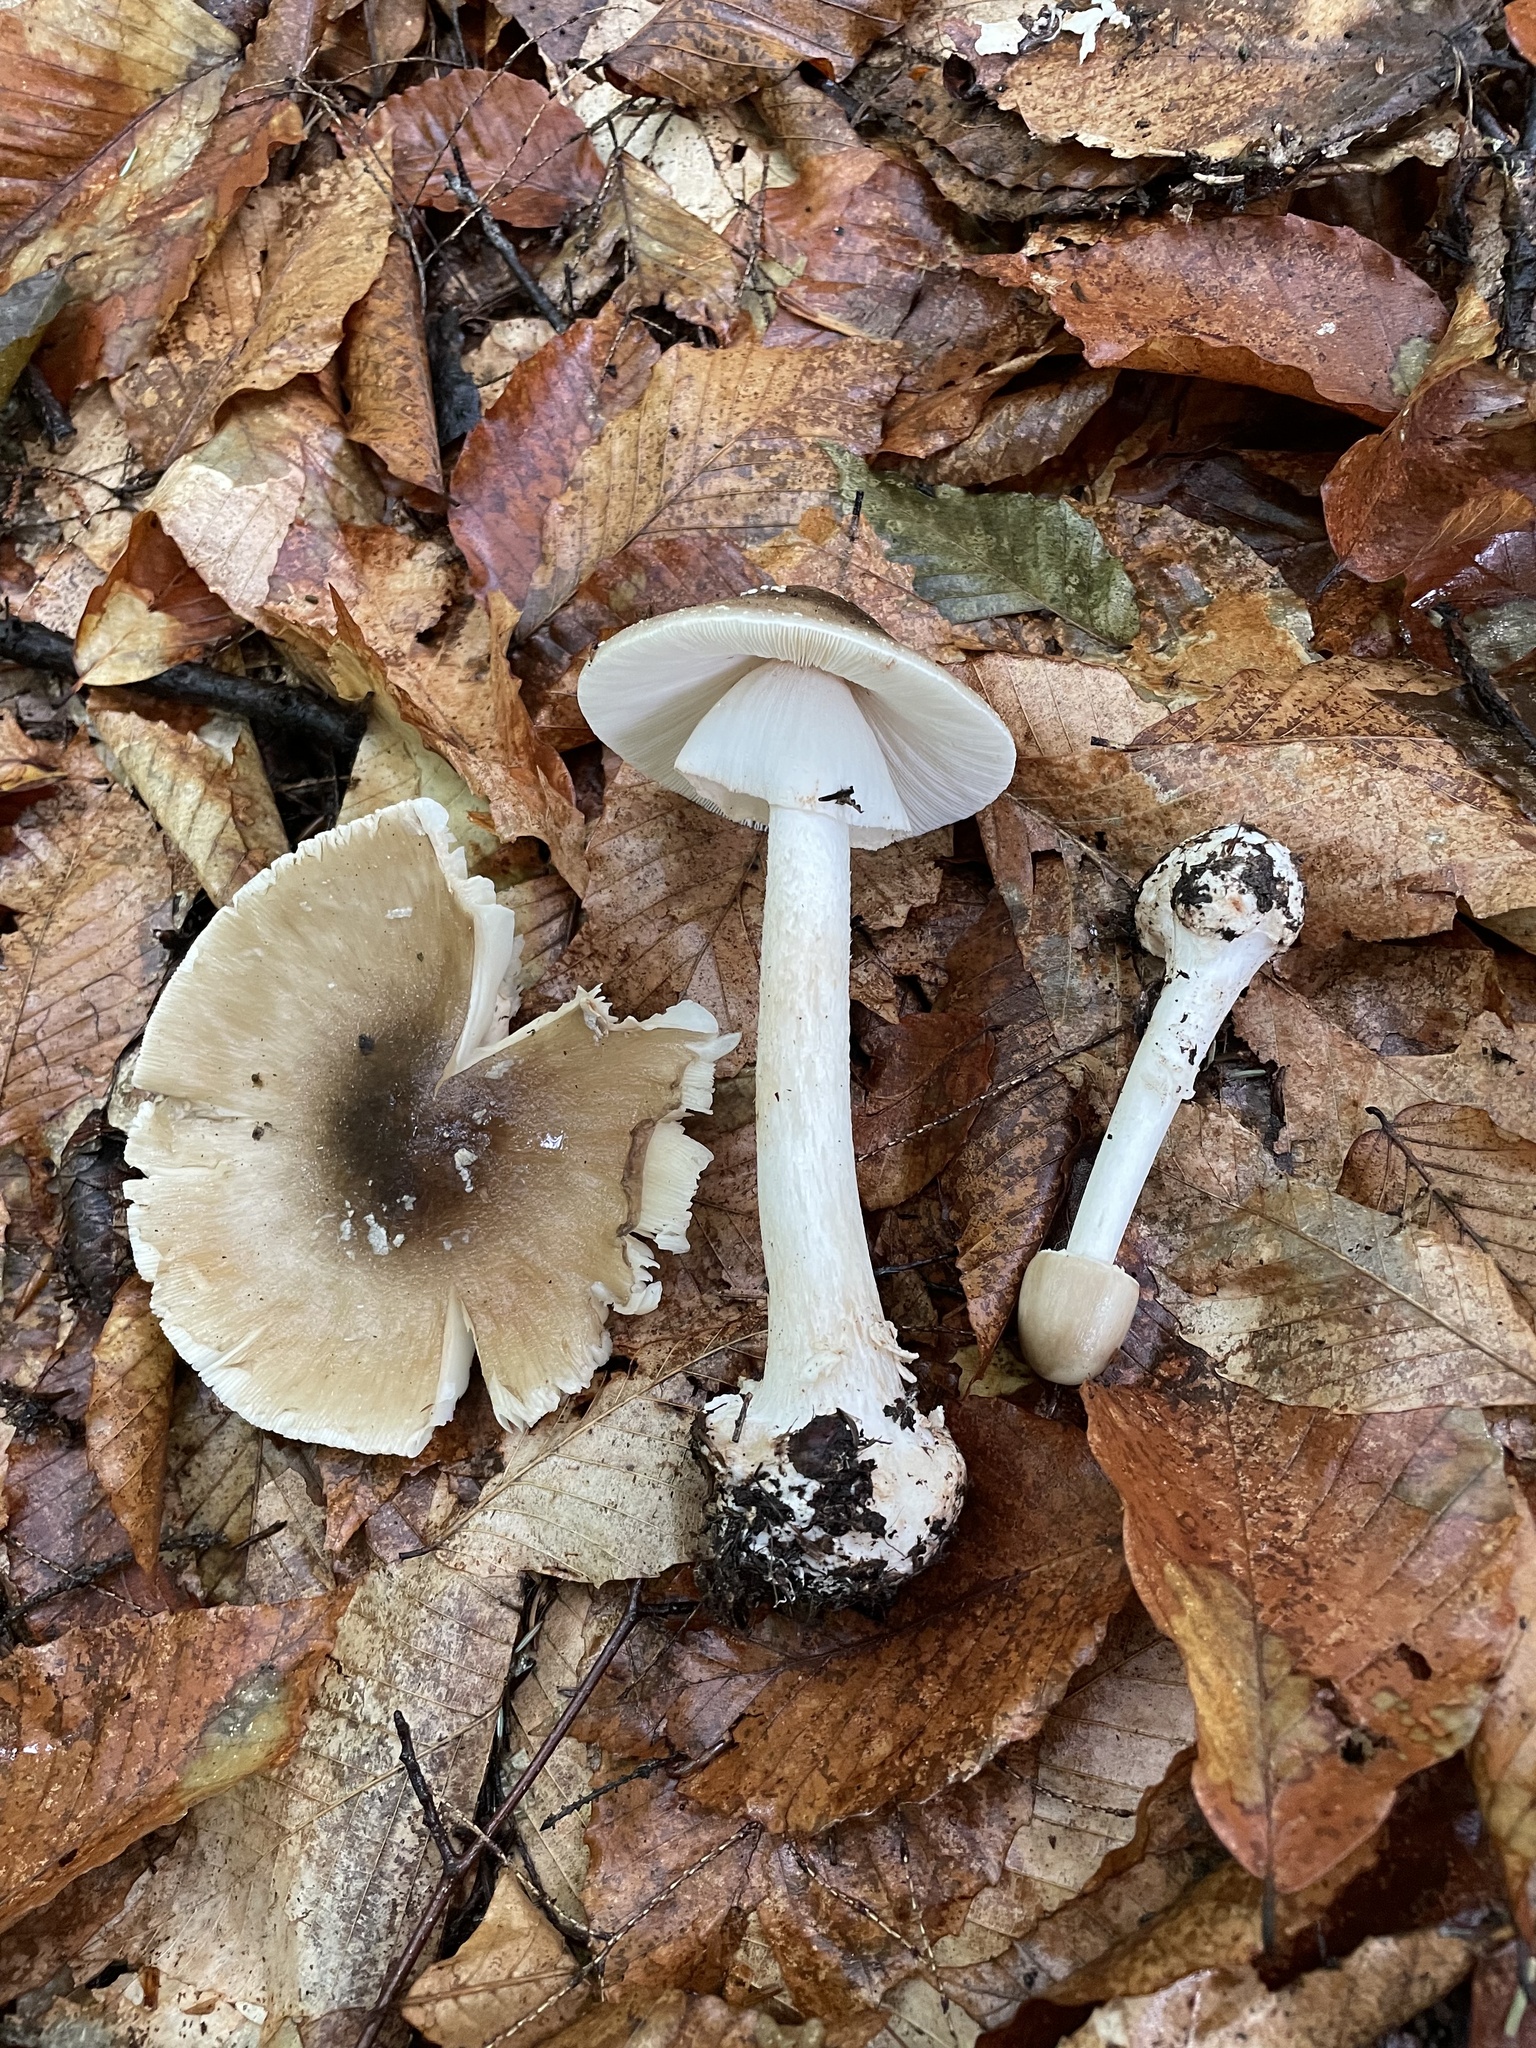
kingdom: Fungi
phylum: Basidiomycota
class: Agaricomycetes
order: Agaricales
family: Amanitaceae
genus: Amanita
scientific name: Amanita brunnescens
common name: Brown american star-footed amanita
